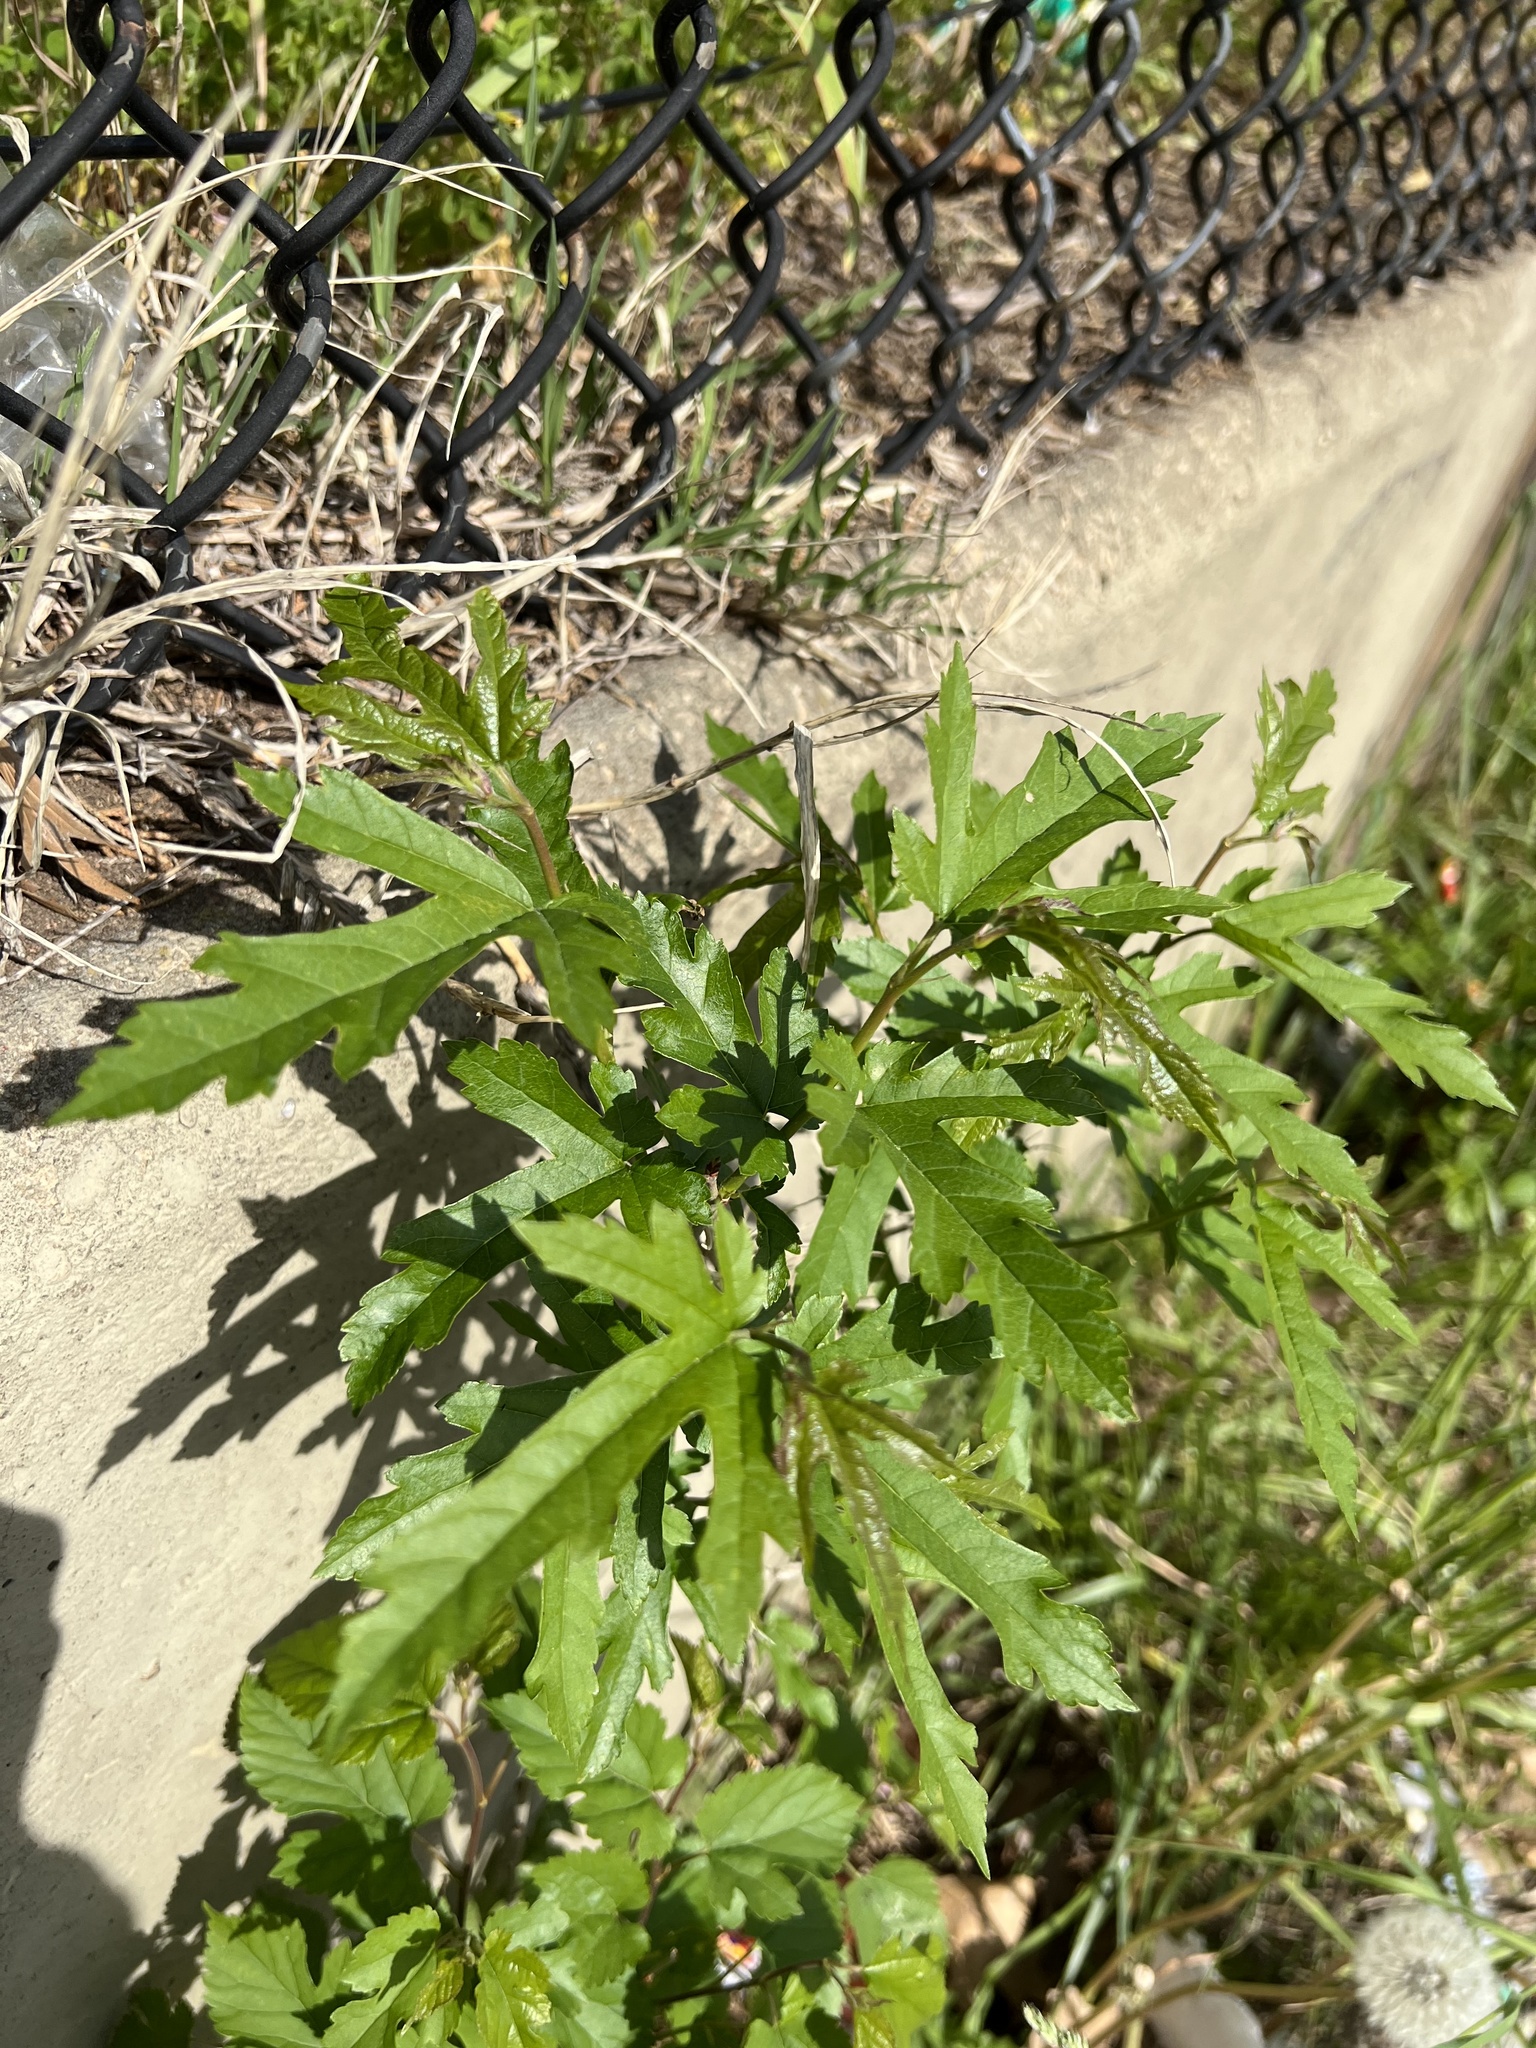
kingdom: Plantae
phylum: Tracheophyta
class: Magnoliopsida
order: Rosales
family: Moraceae
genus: Morus
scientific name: Morus indica
